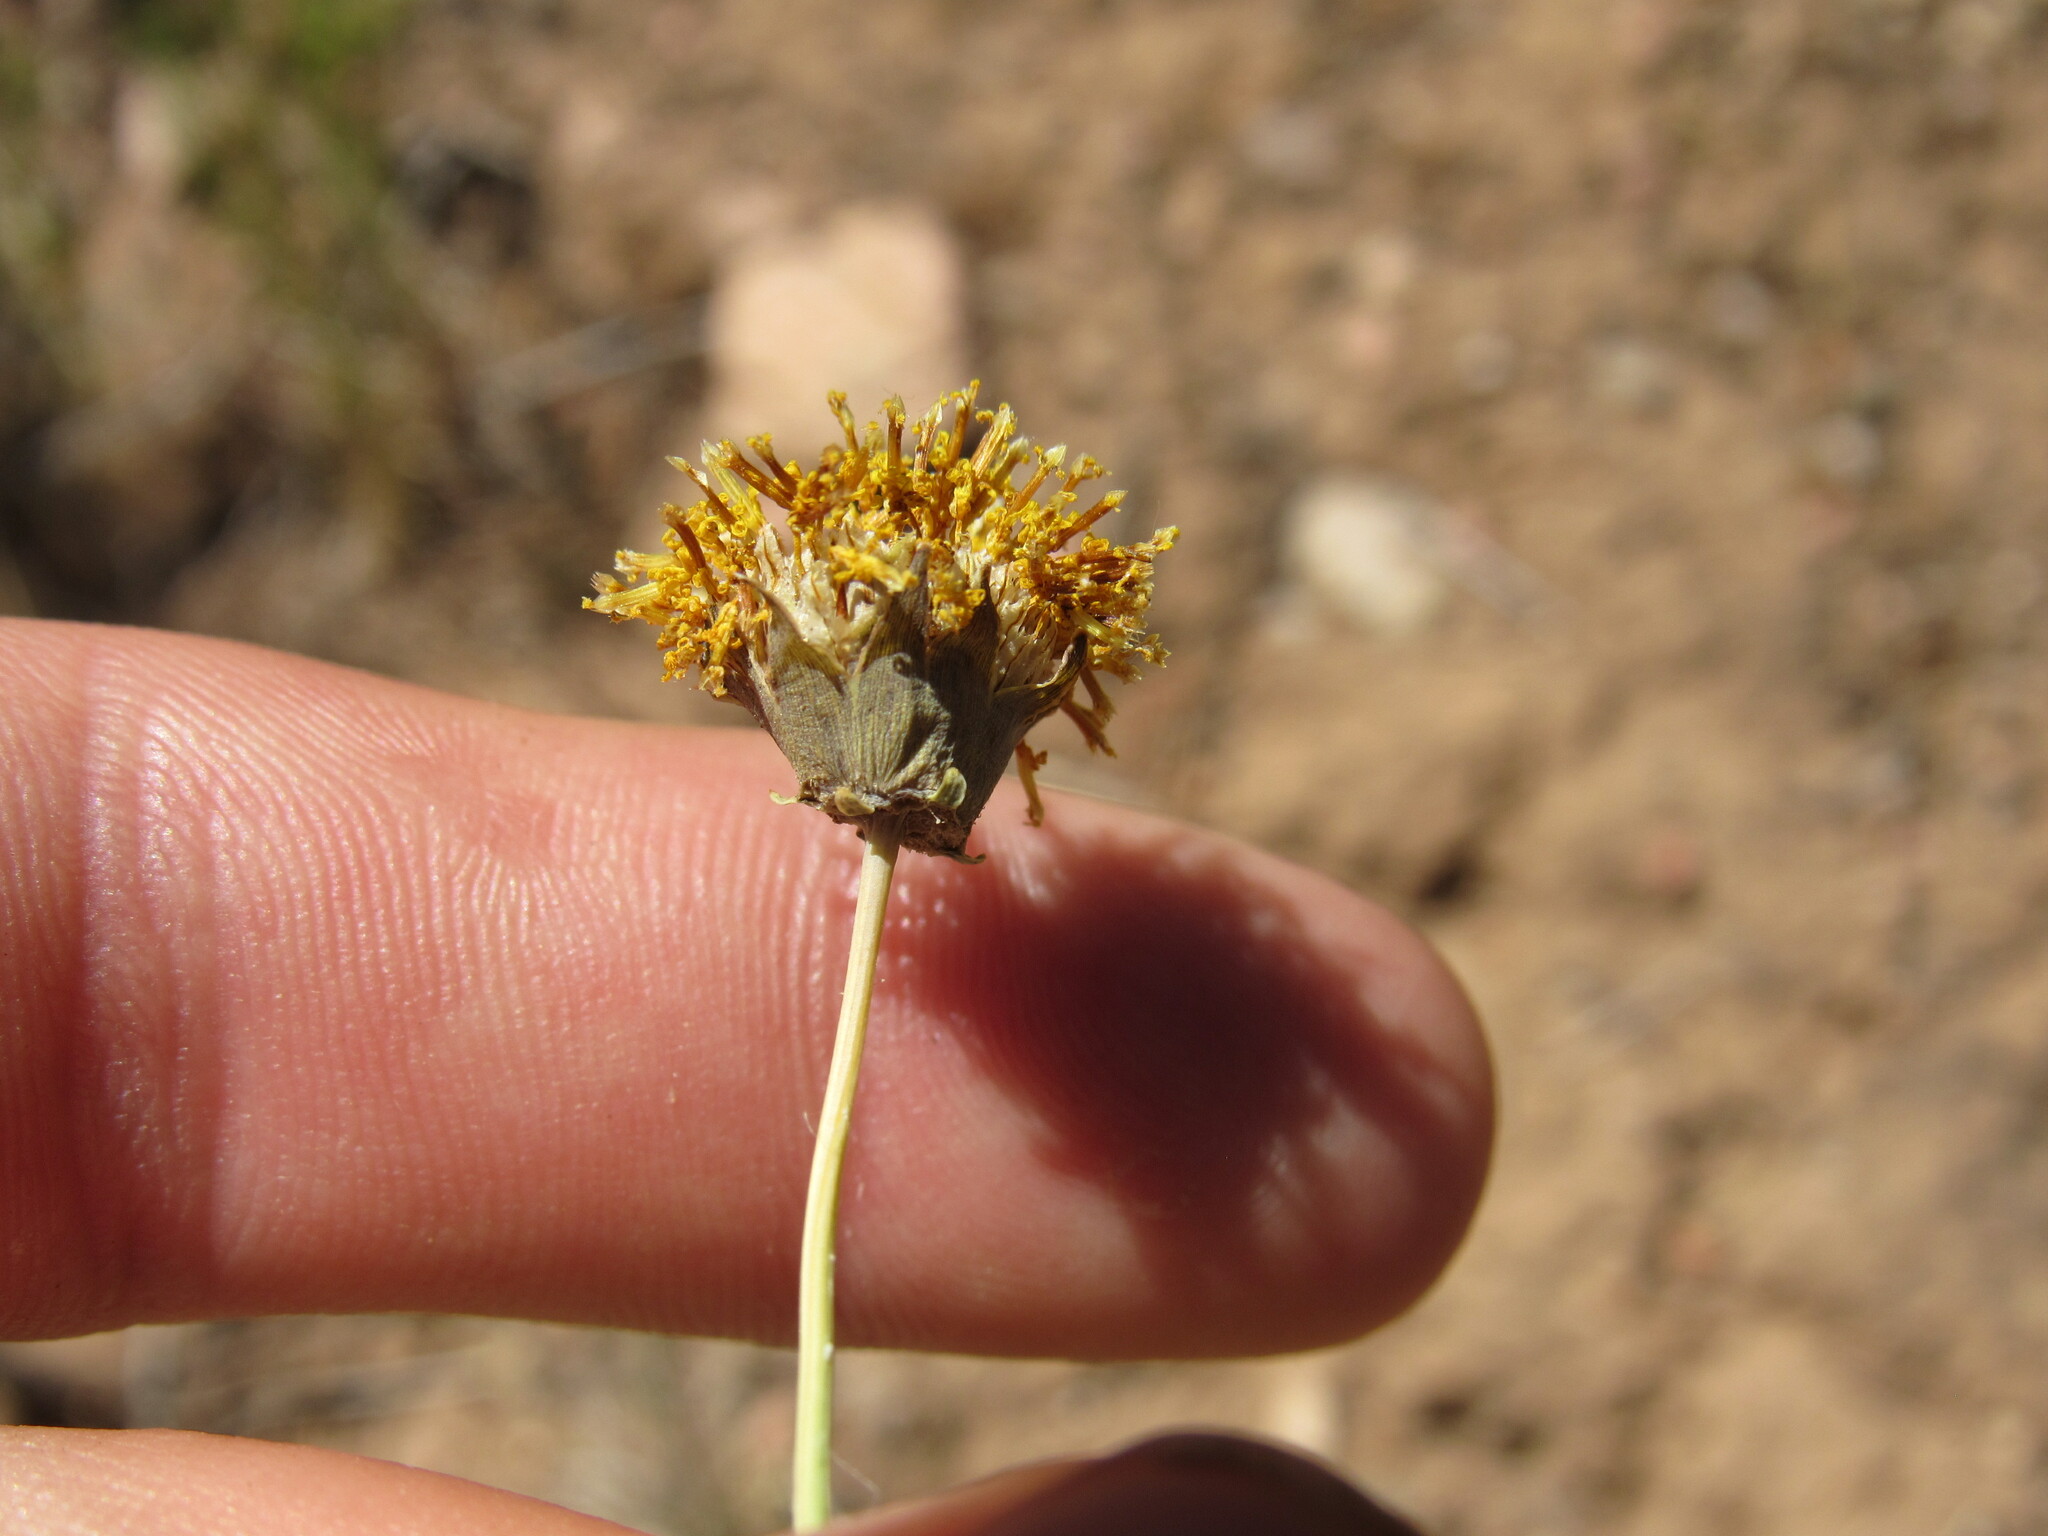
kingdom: Plantae
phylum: Tracheophyta
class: Magnoliopsida
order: Asterales
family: Asteraceae
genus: Thelesperma
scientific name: Thelesperma megapotamicum
